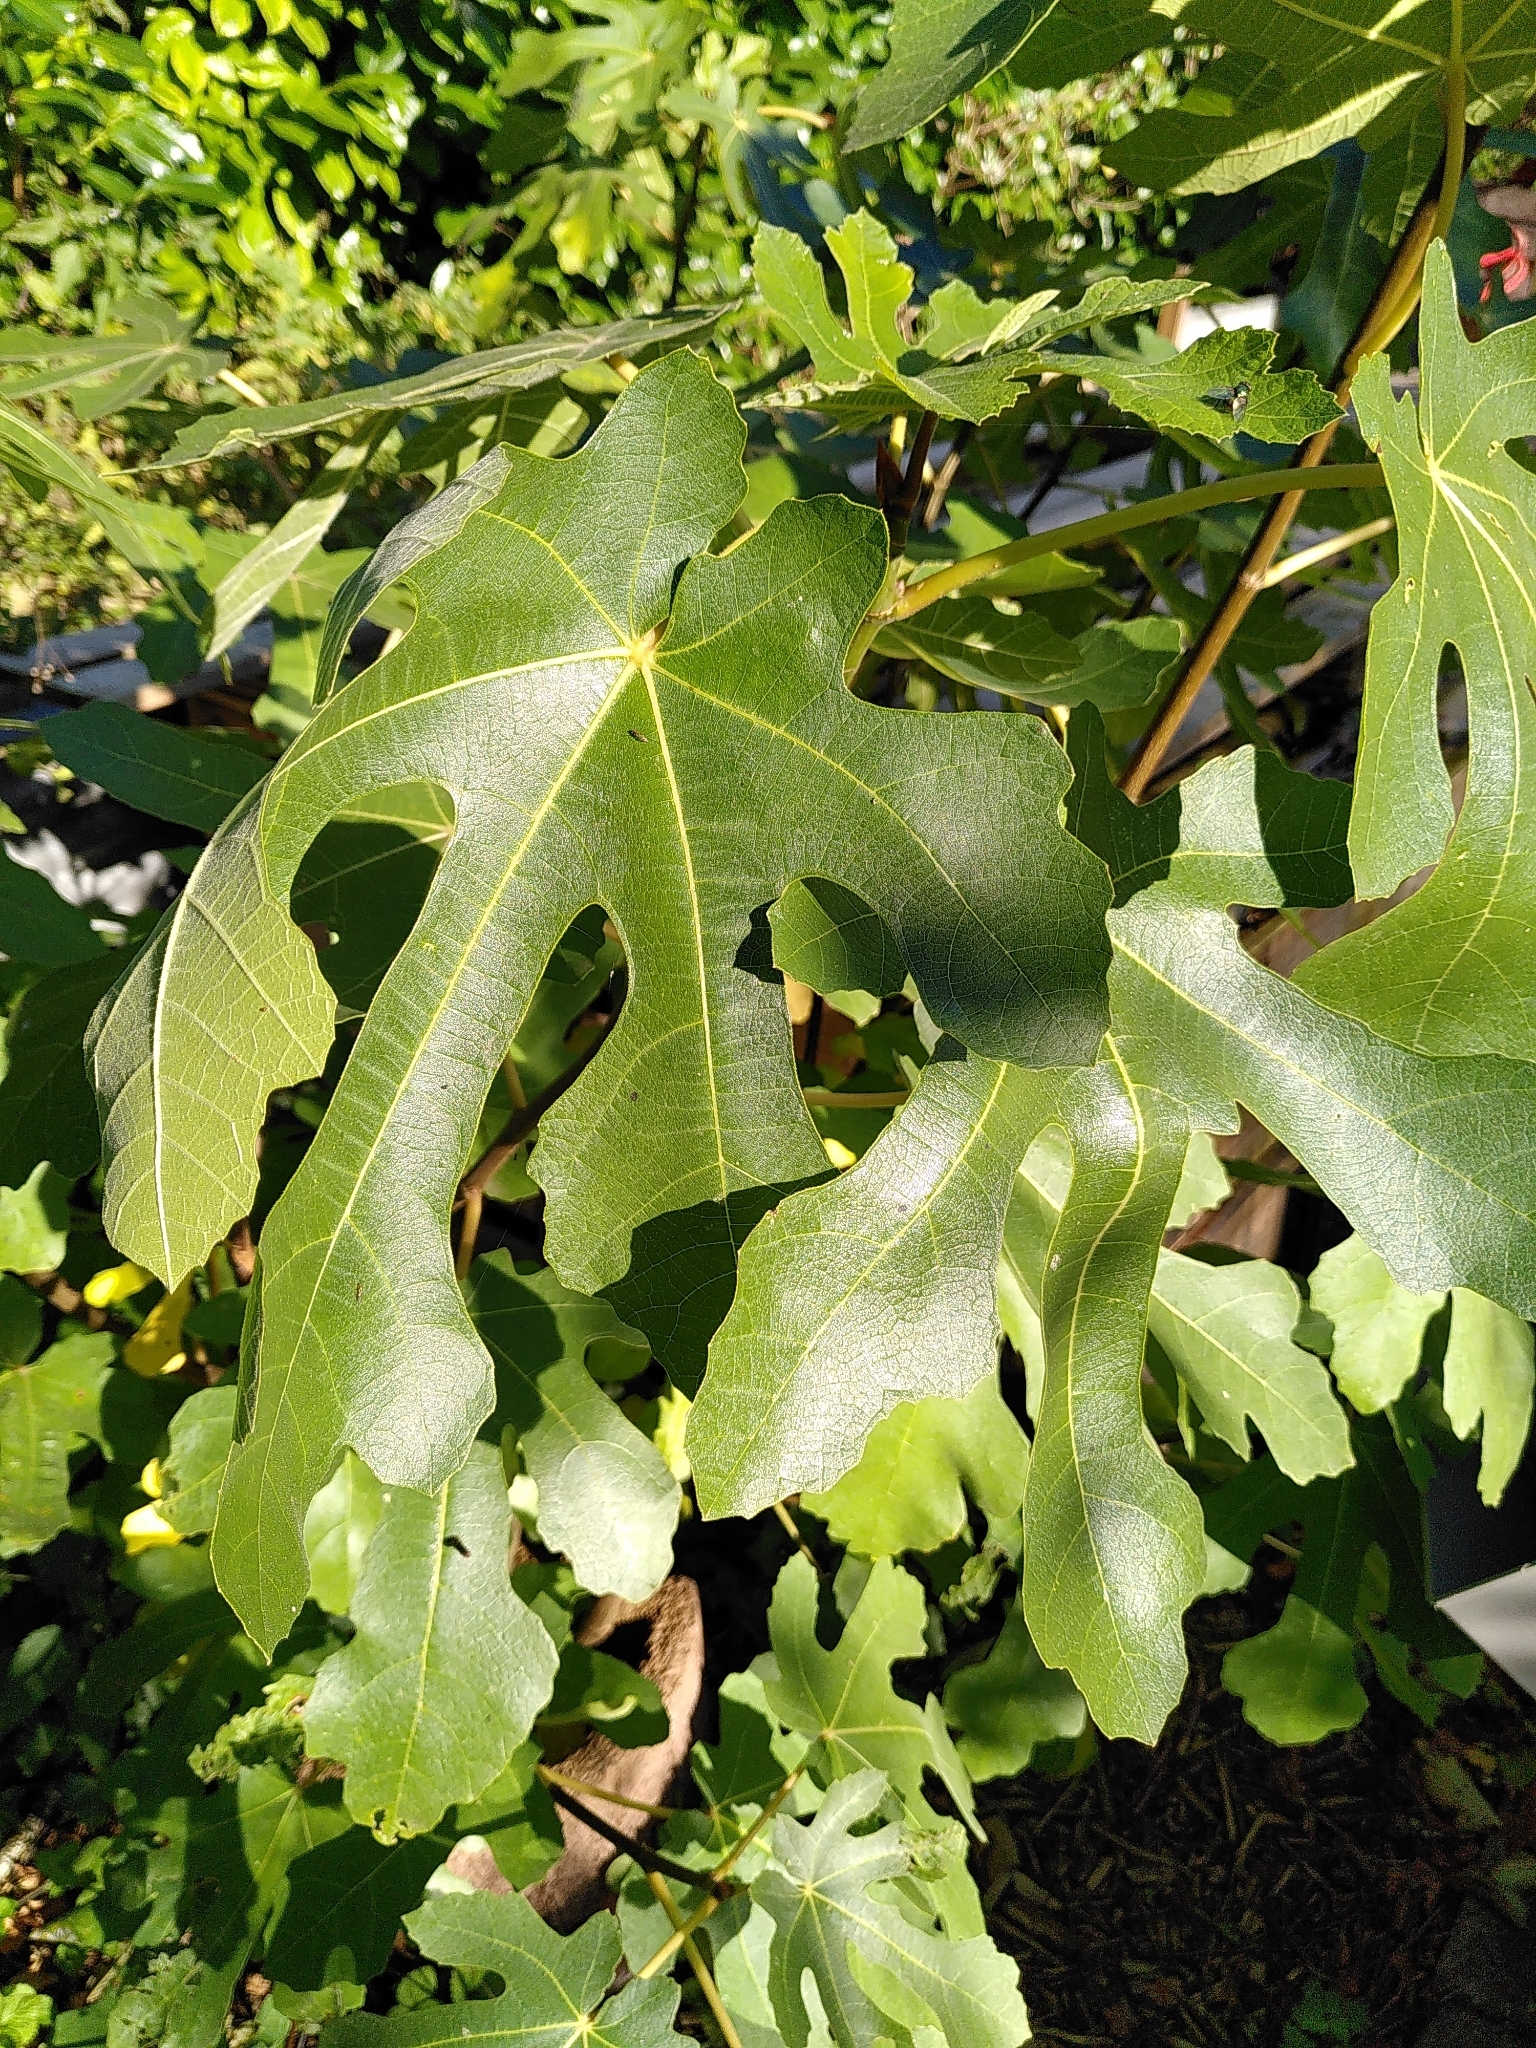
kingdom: Plantae
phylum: Tracheophyta
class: Magnoliopsida
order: Rosales
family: Moraceae
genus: Ficus
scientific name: Ficus carica
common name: Fig
